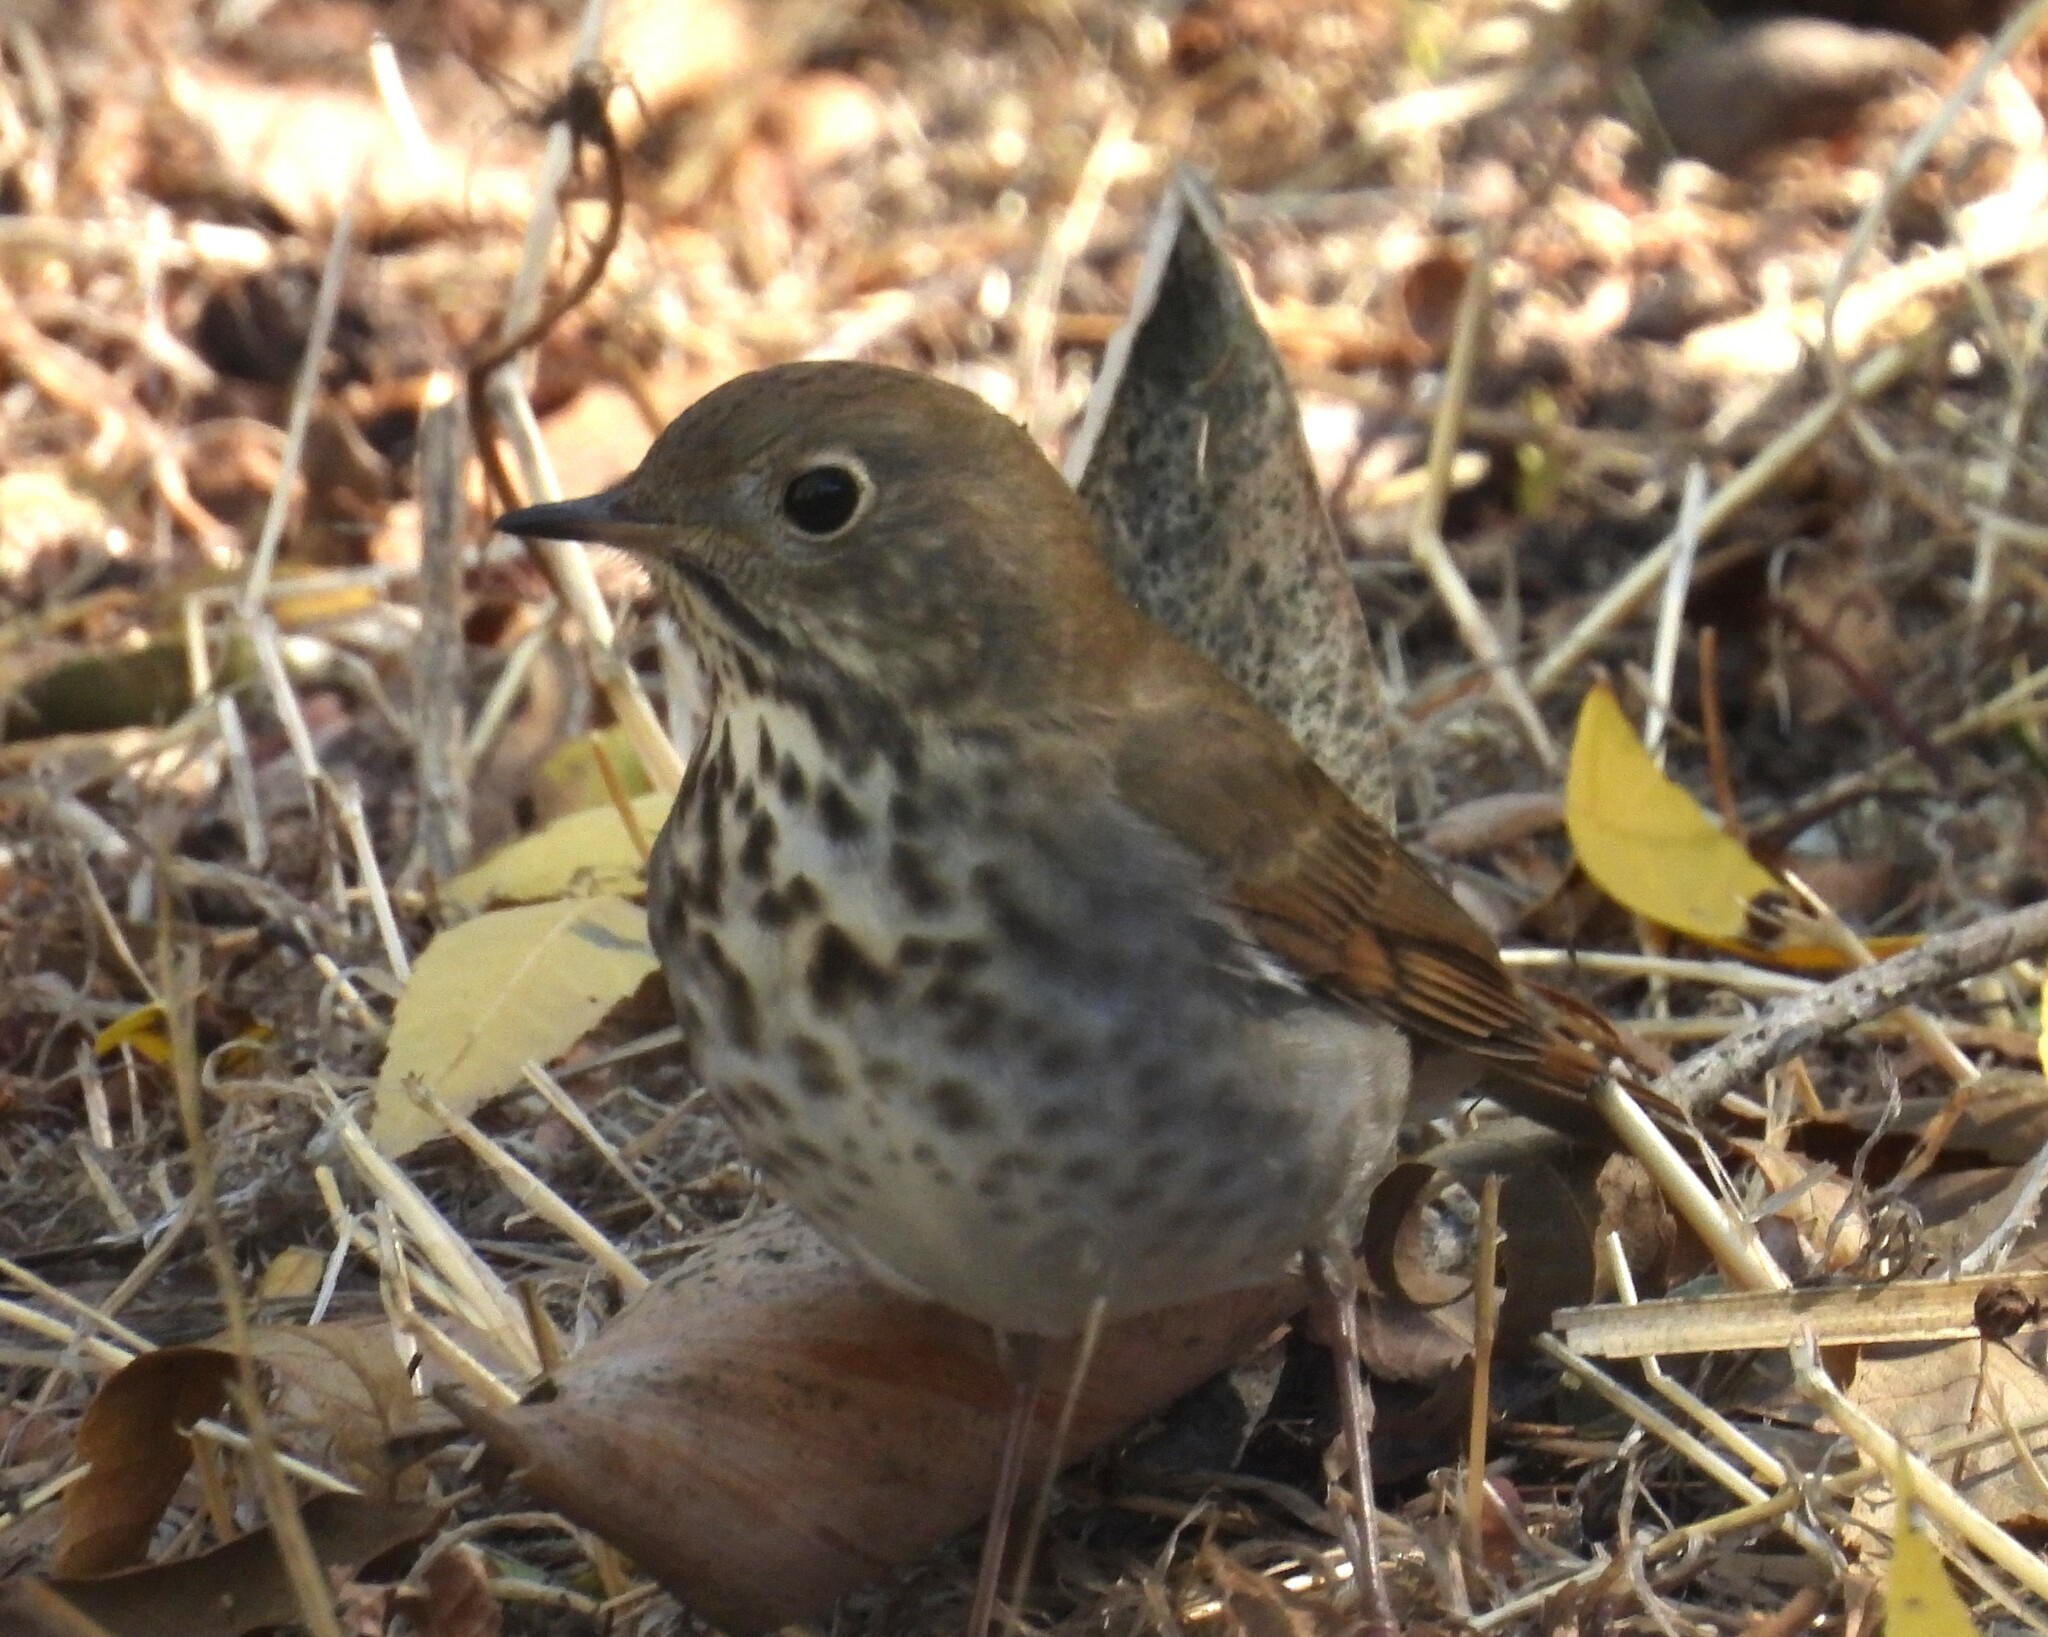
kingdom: Animalia
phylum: Chordata
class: Aves
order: Passeriformes
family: Turdidae
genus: Catharus
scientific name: Catharus guttatus
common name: Hermit thrush
